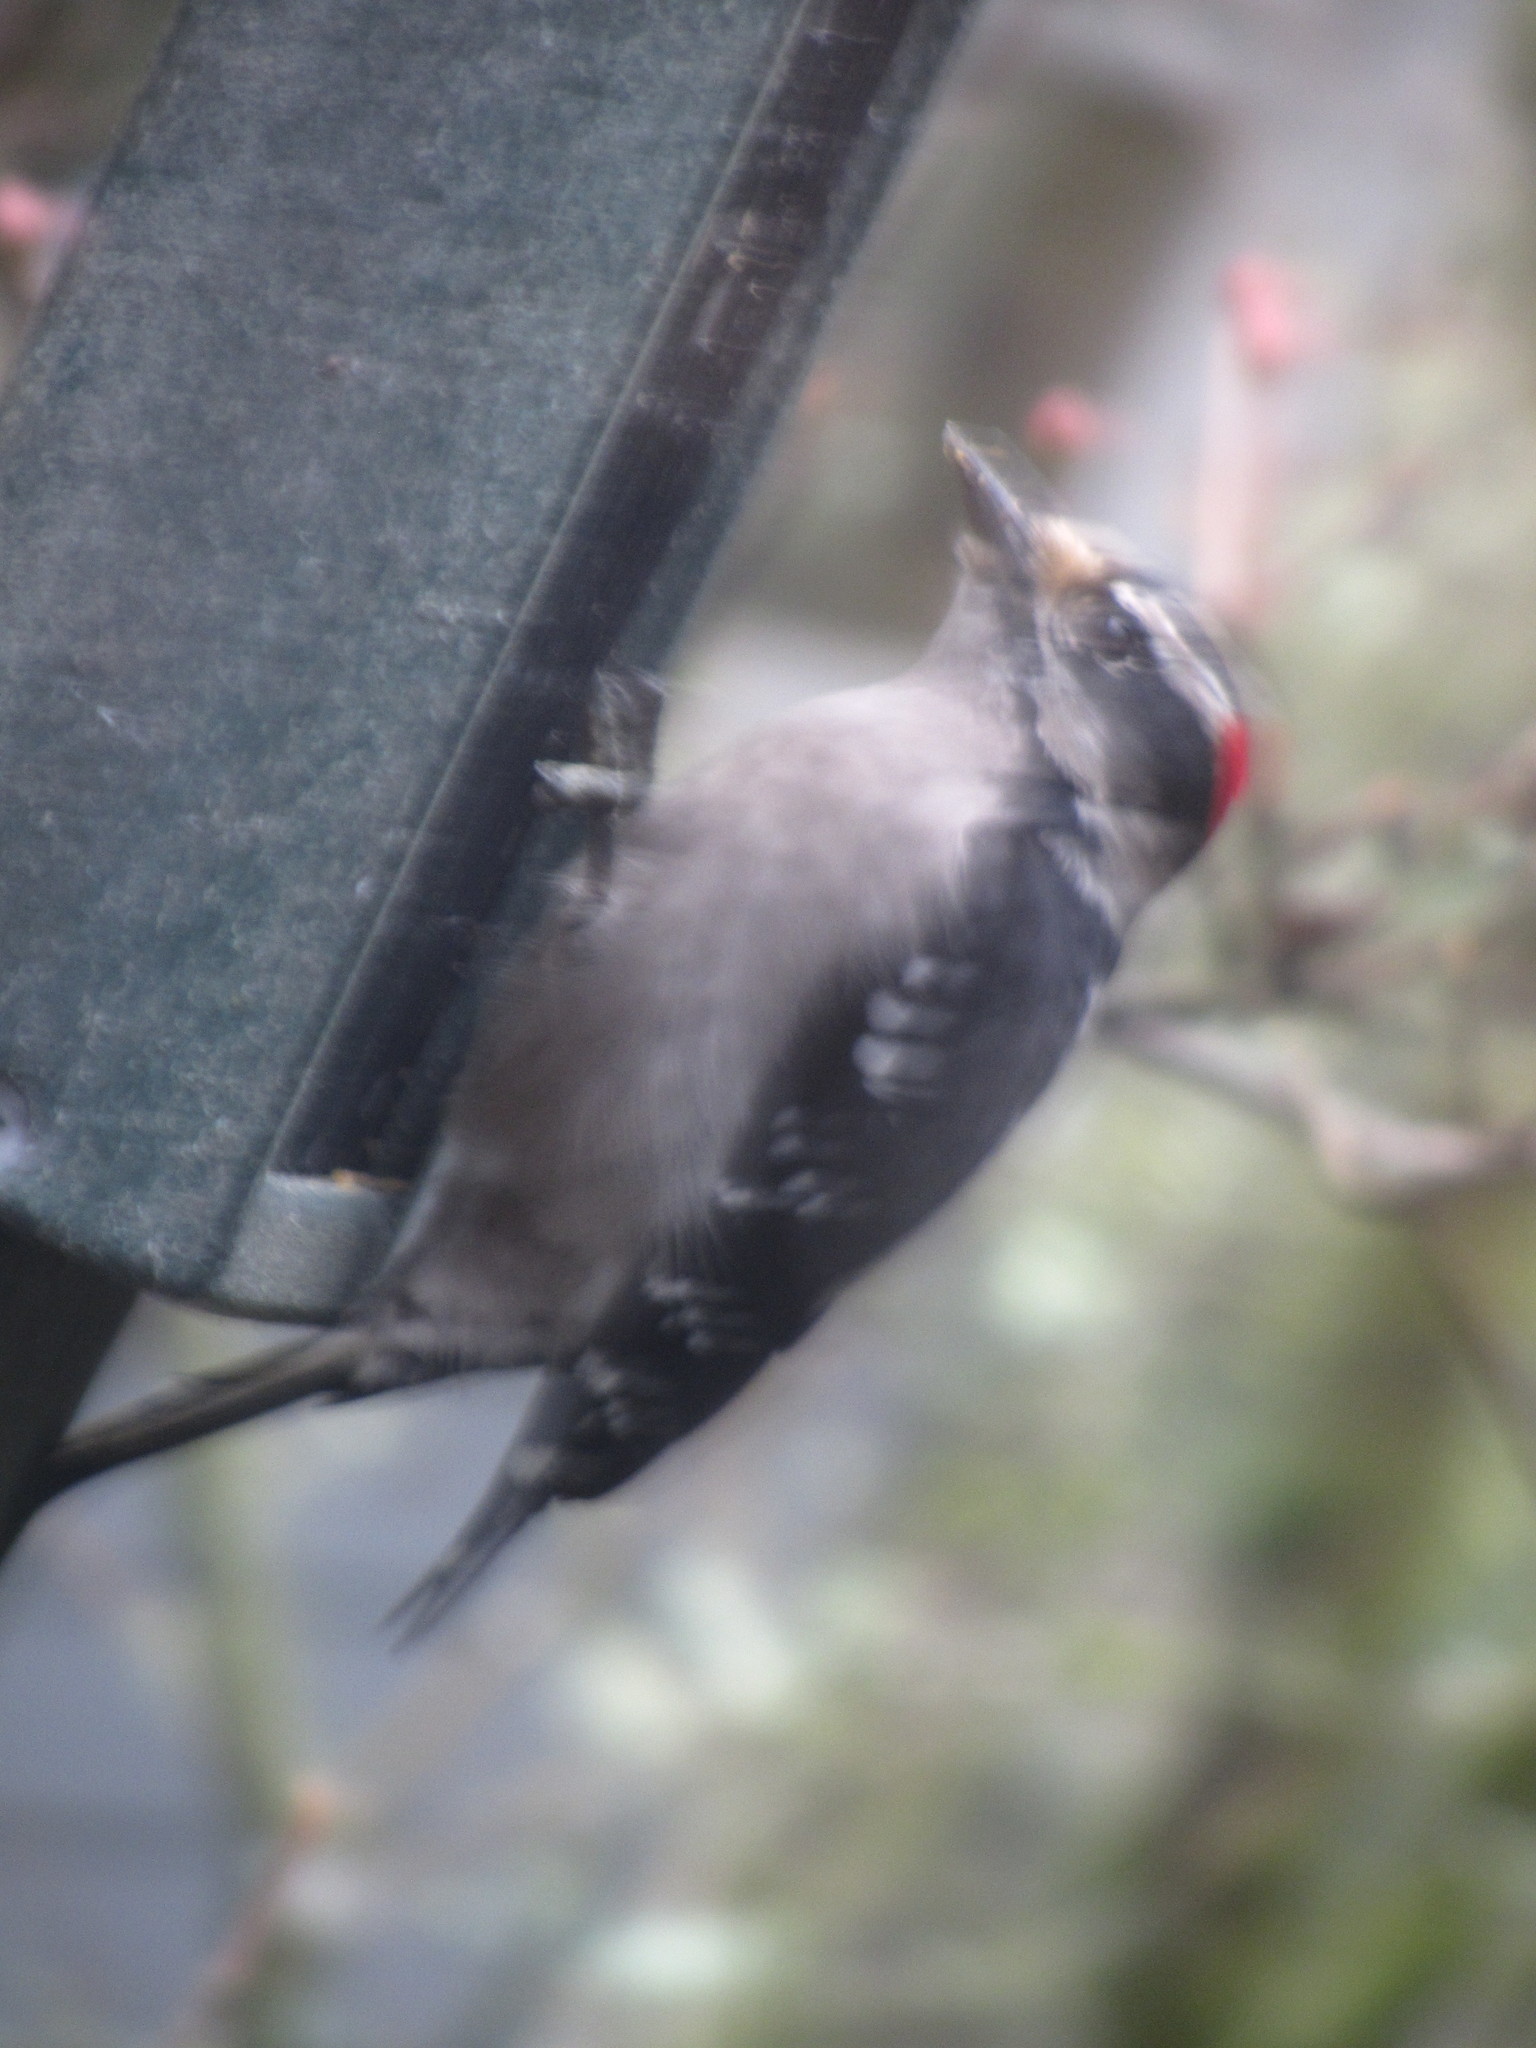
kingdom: Animalia
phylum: Chordata
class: Aves
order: Piciformes
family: Picidae
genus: Dryobates
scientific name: Dryobates pubescens
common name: Downy woodpecker
